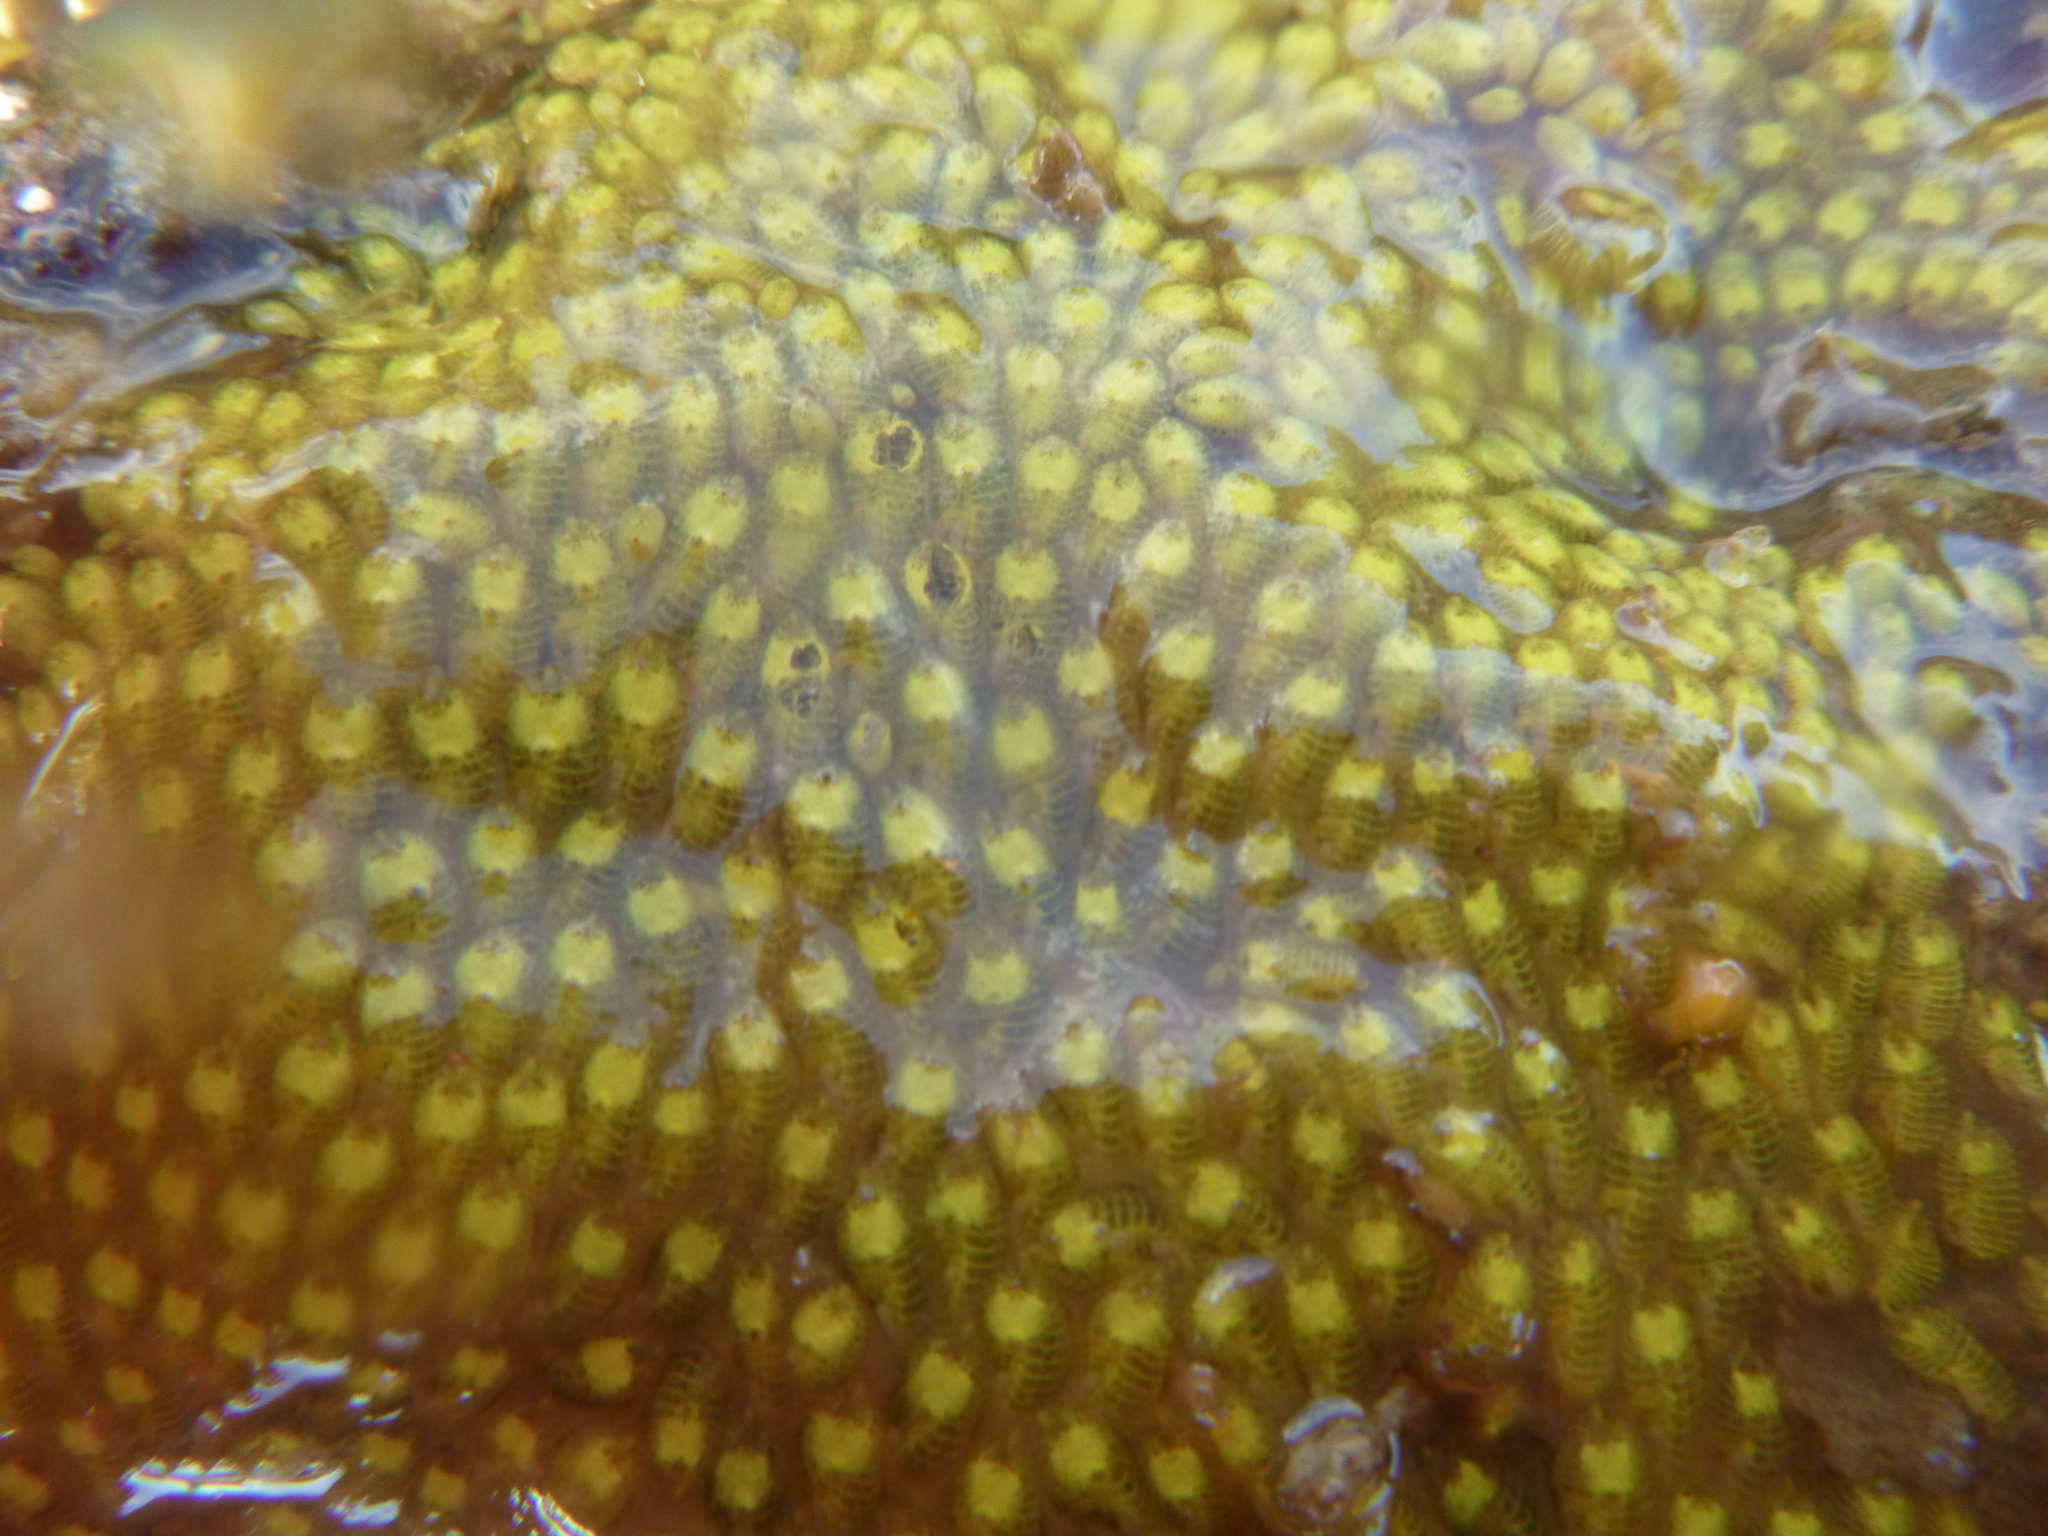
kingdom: Animalia
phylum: Chordata
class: Ascidiacea
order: Stolidobranchia
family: Styelidae
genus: Symplegma
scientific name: Symplegma brakenhielmi
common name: Ascidian
